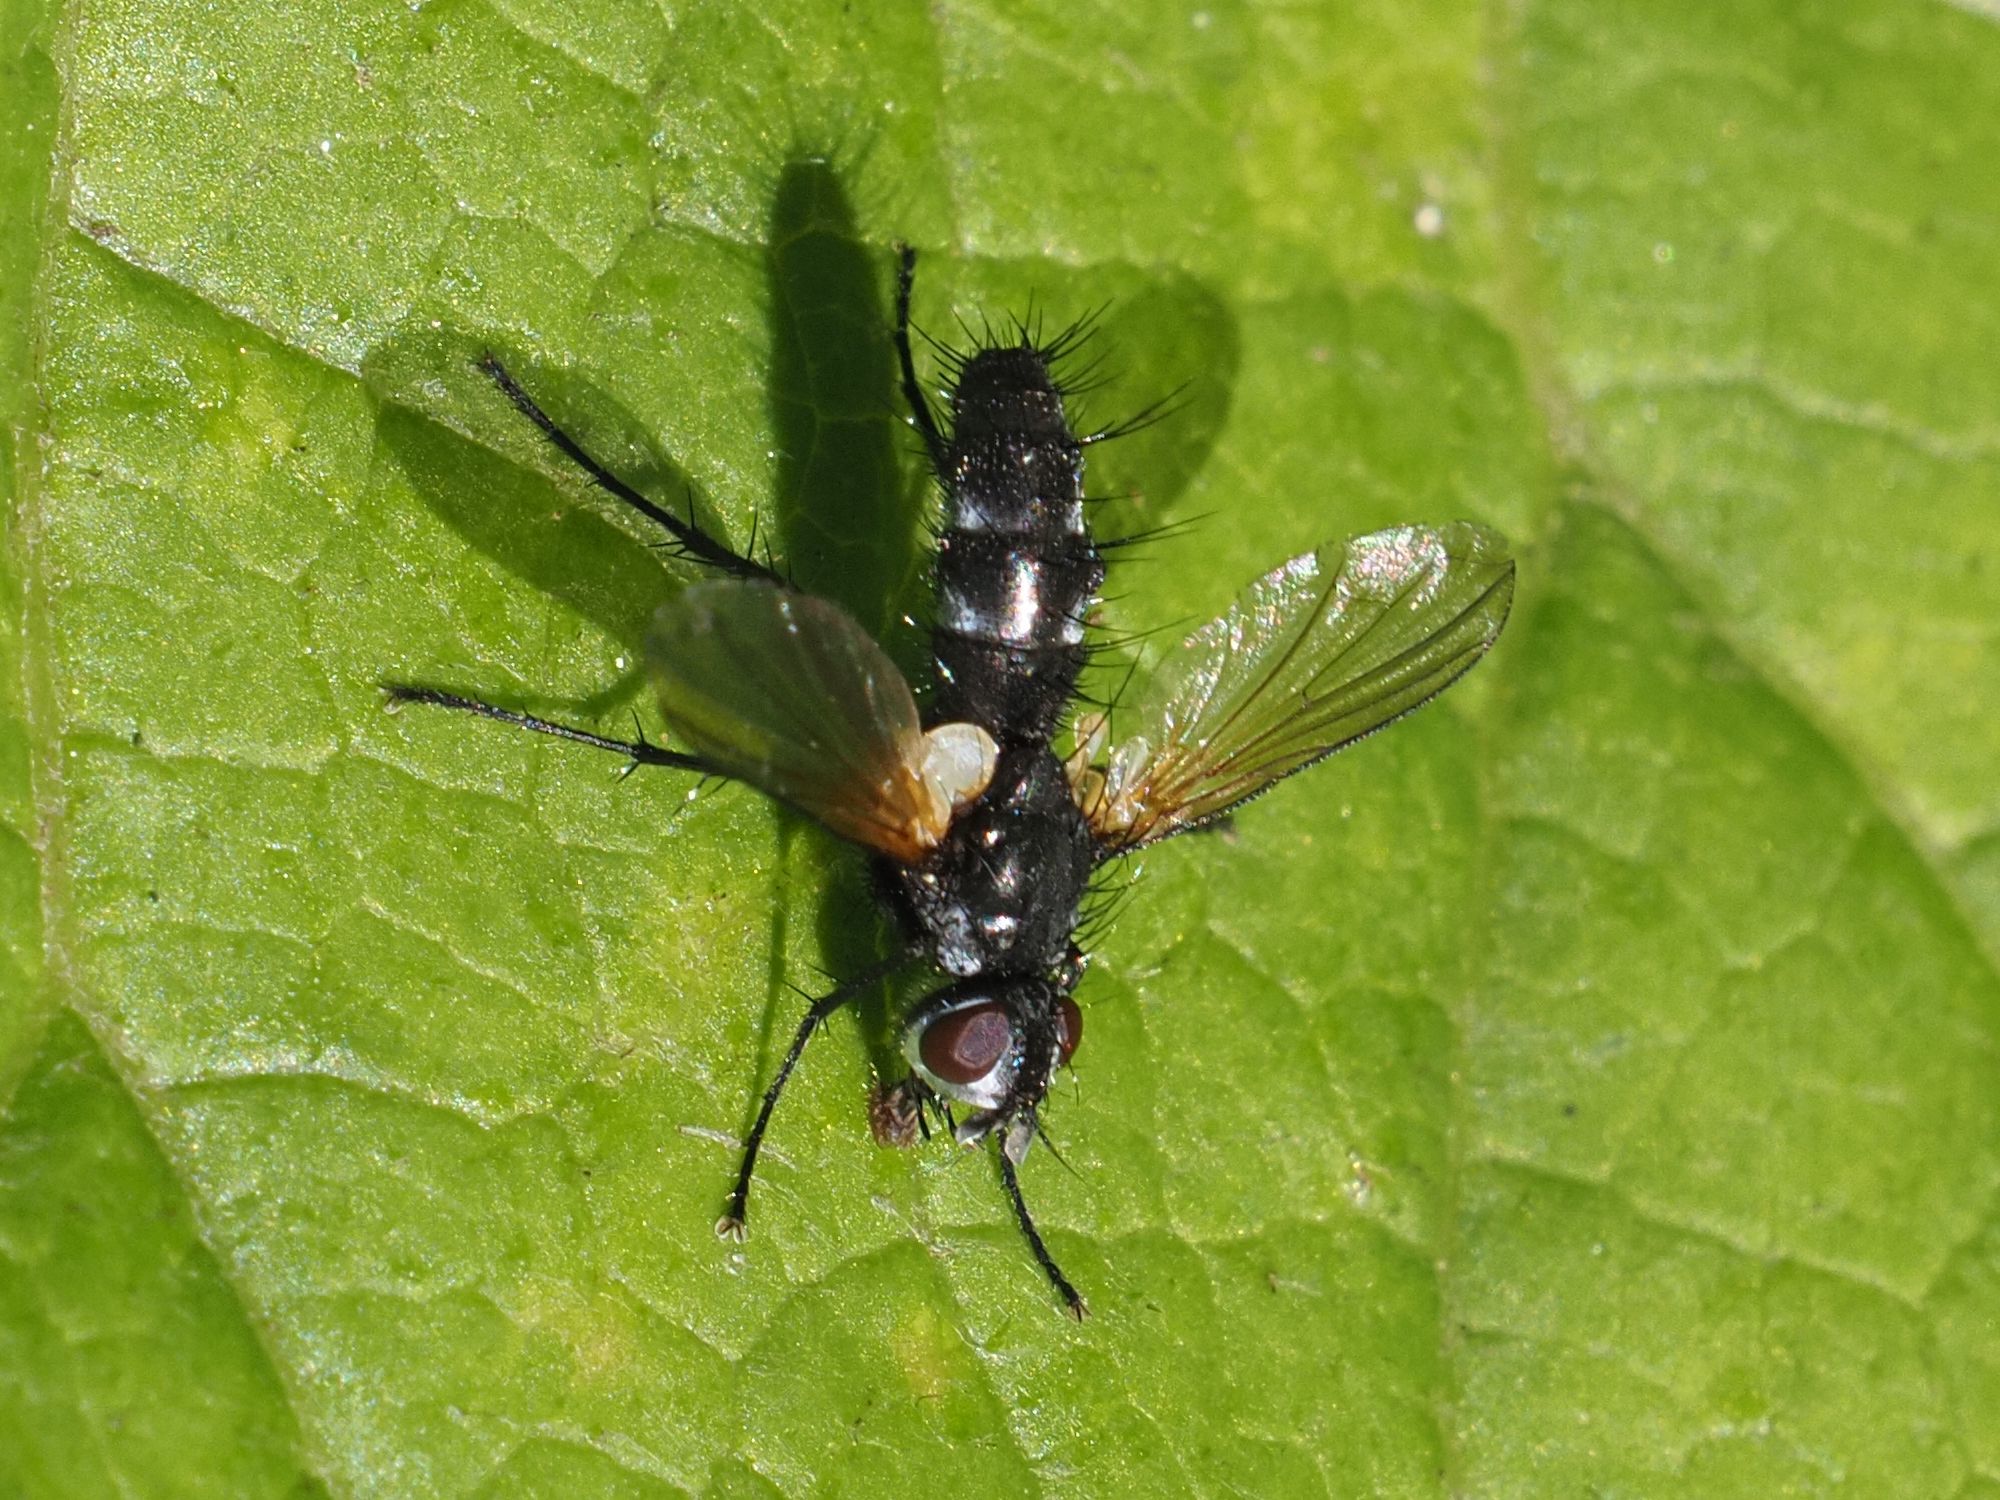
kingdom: Animalia
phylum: Arthropoda
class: Insecta
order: Diptera
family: Tachinidae
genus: Phyllomya
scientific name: Phyllomya volvulus
